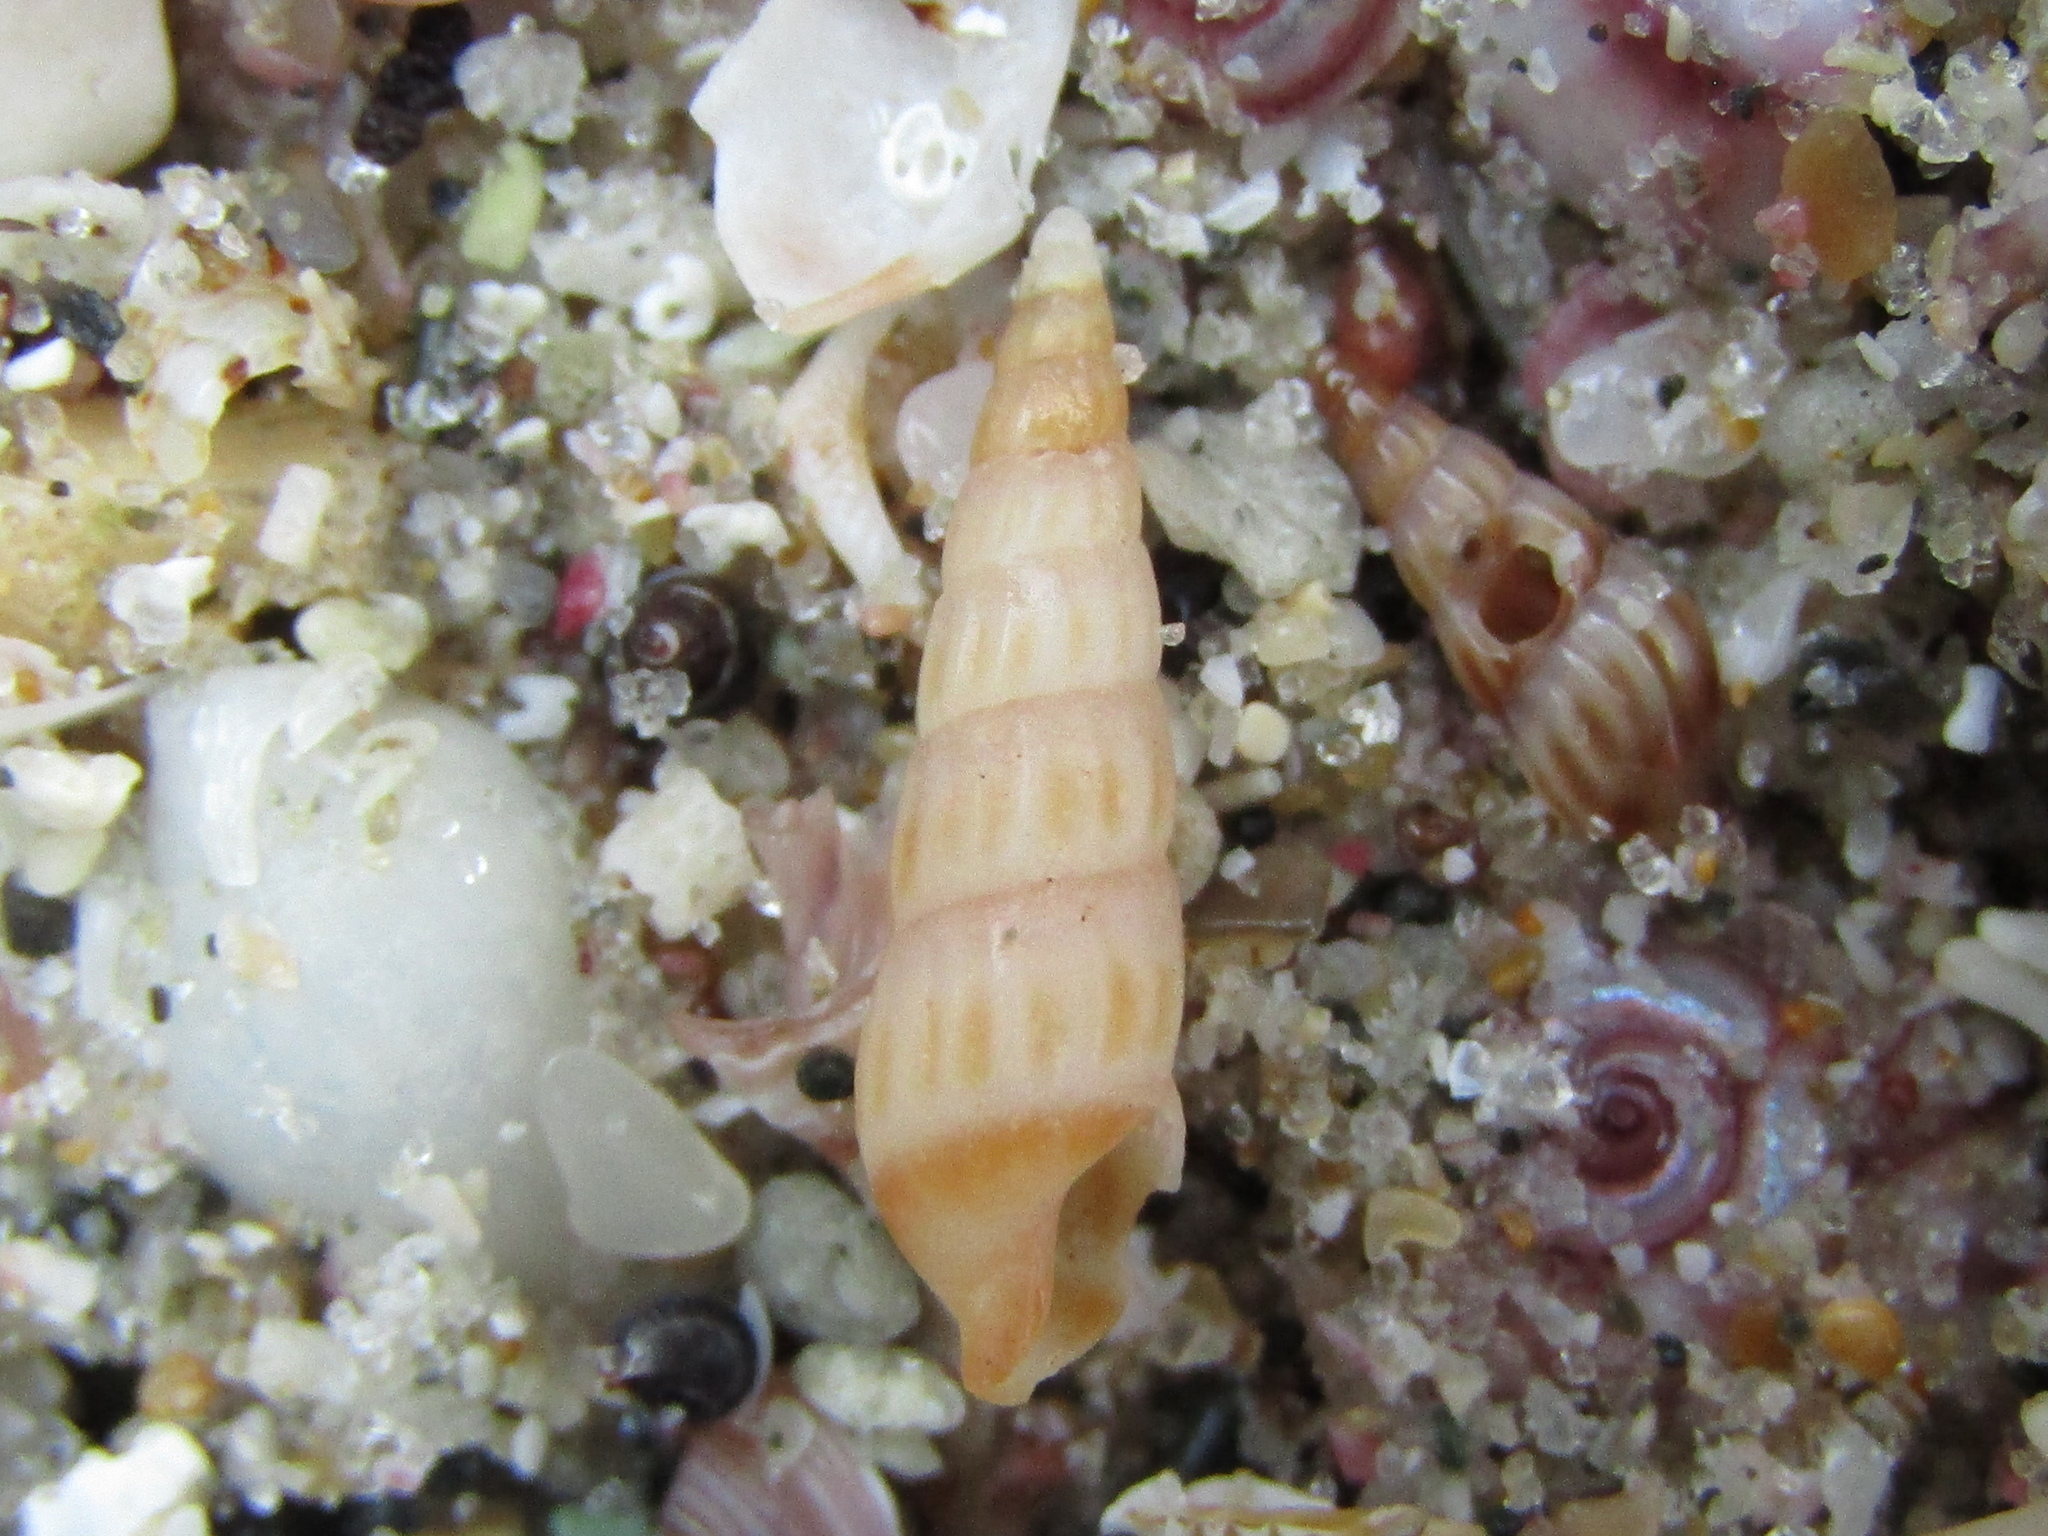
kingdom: Animalia
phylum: Mollusca
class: Gastropoda
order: Neogastropoda
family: Terebridae
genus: Duplicaria
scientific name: Duplicaria tristis
